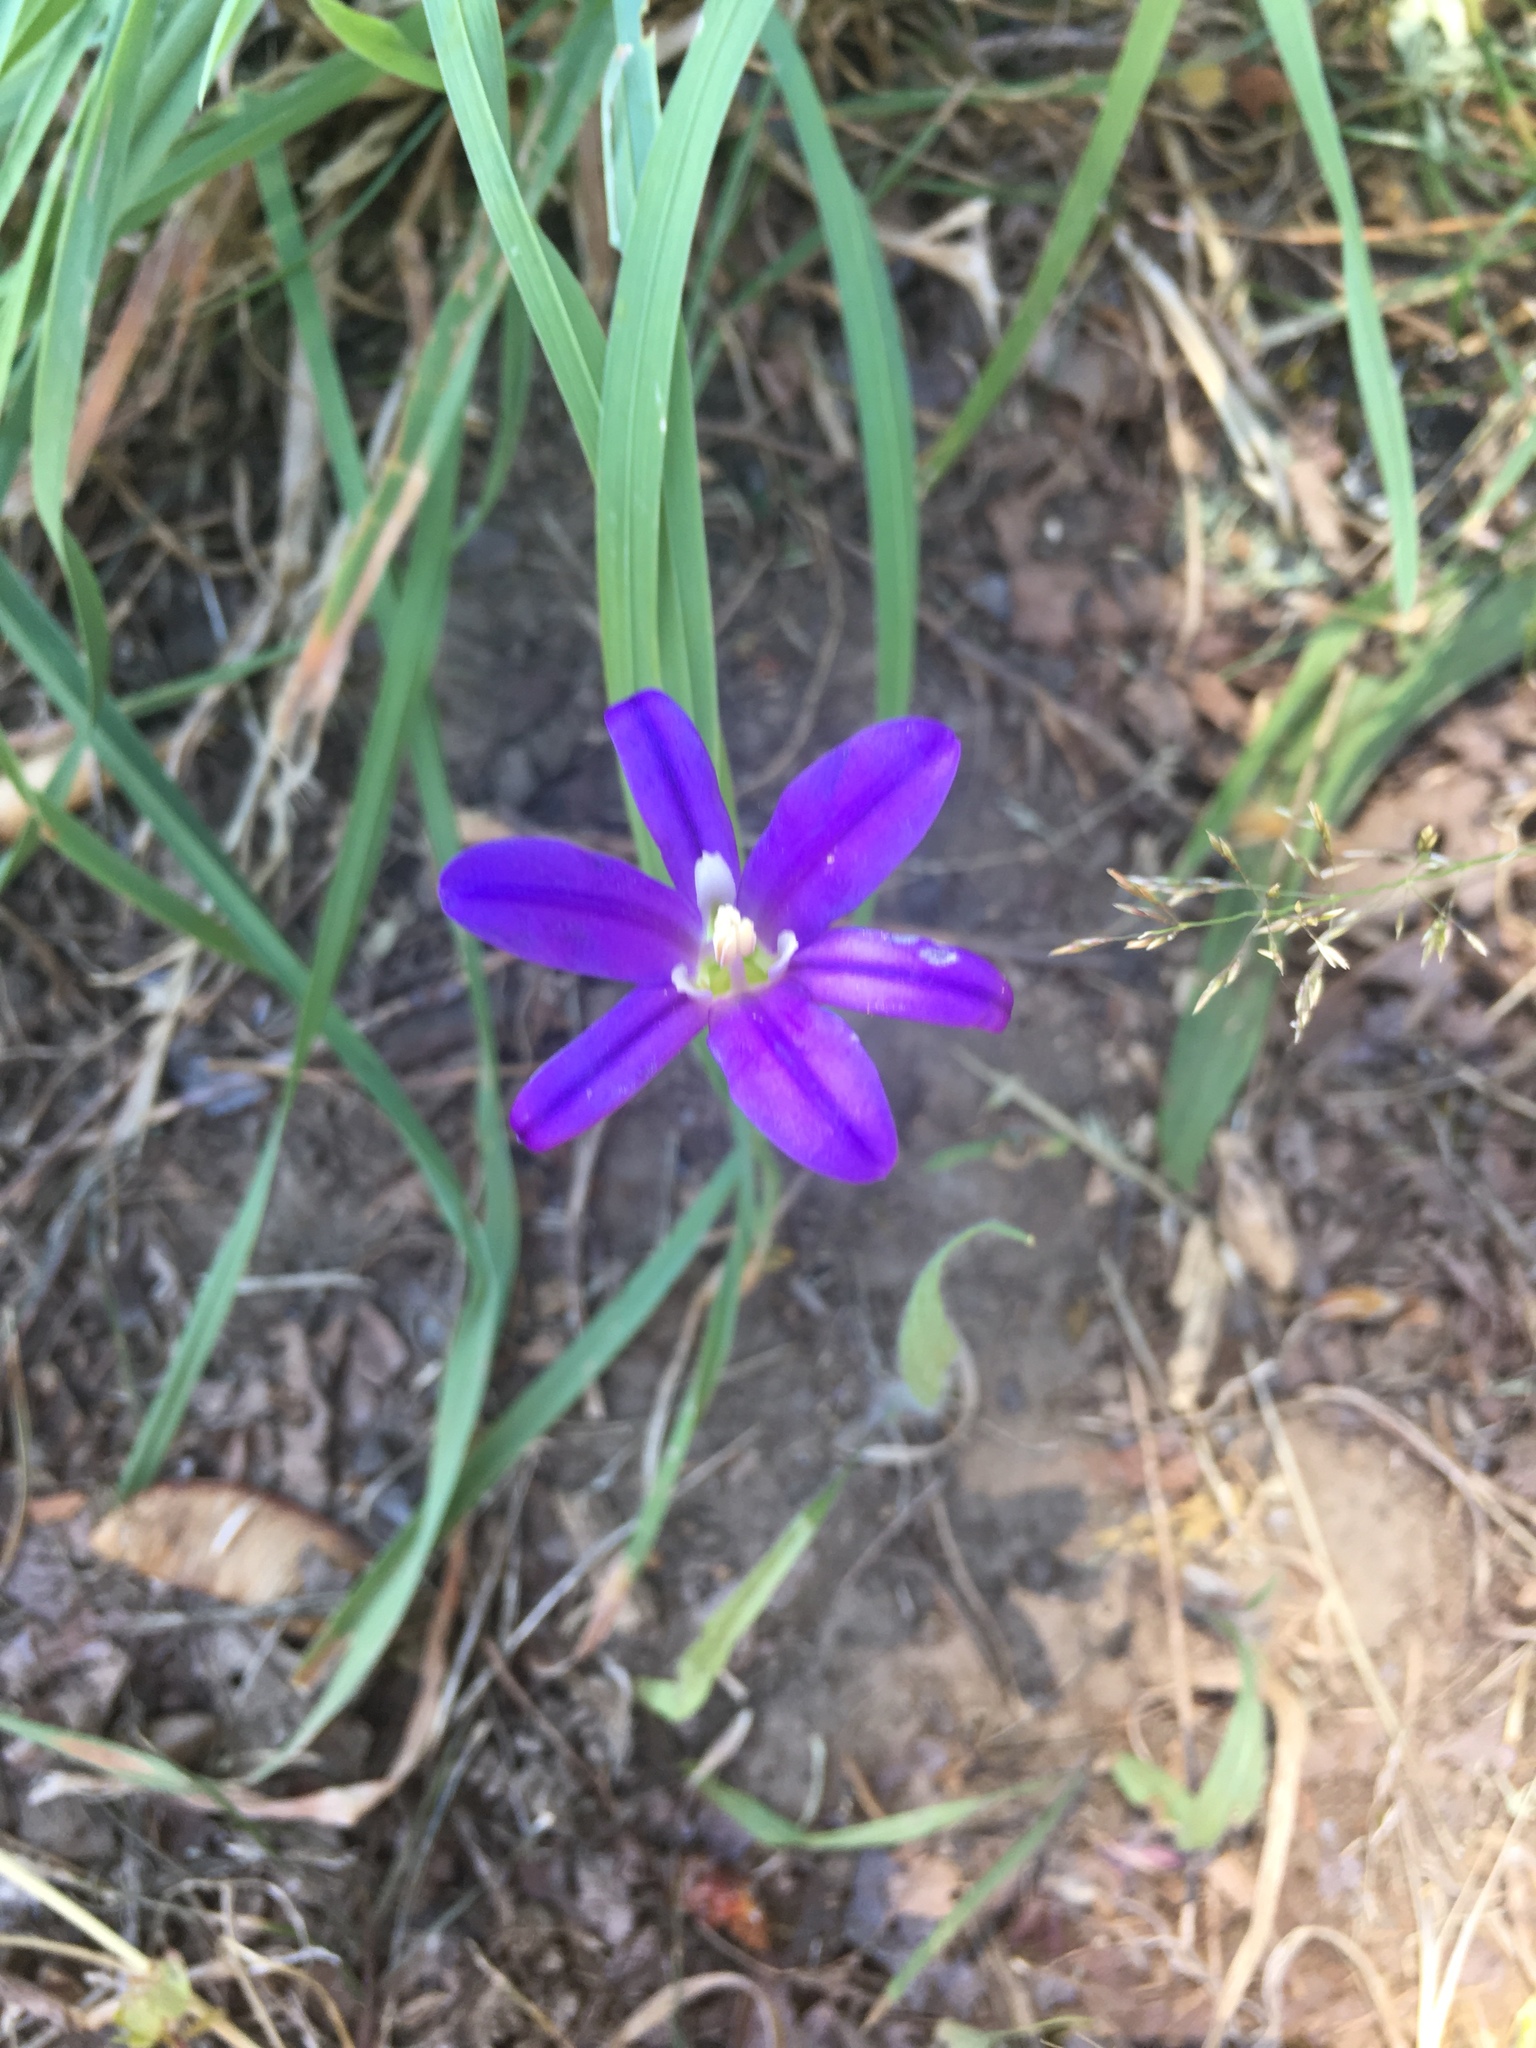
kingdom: Plantae
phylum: Tracheophyta
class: Liliopsida
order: Asparagales
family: Asparagaceae
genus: Brodiaea
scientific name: Brodiaea elegans
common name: Elegant cluster-lily
